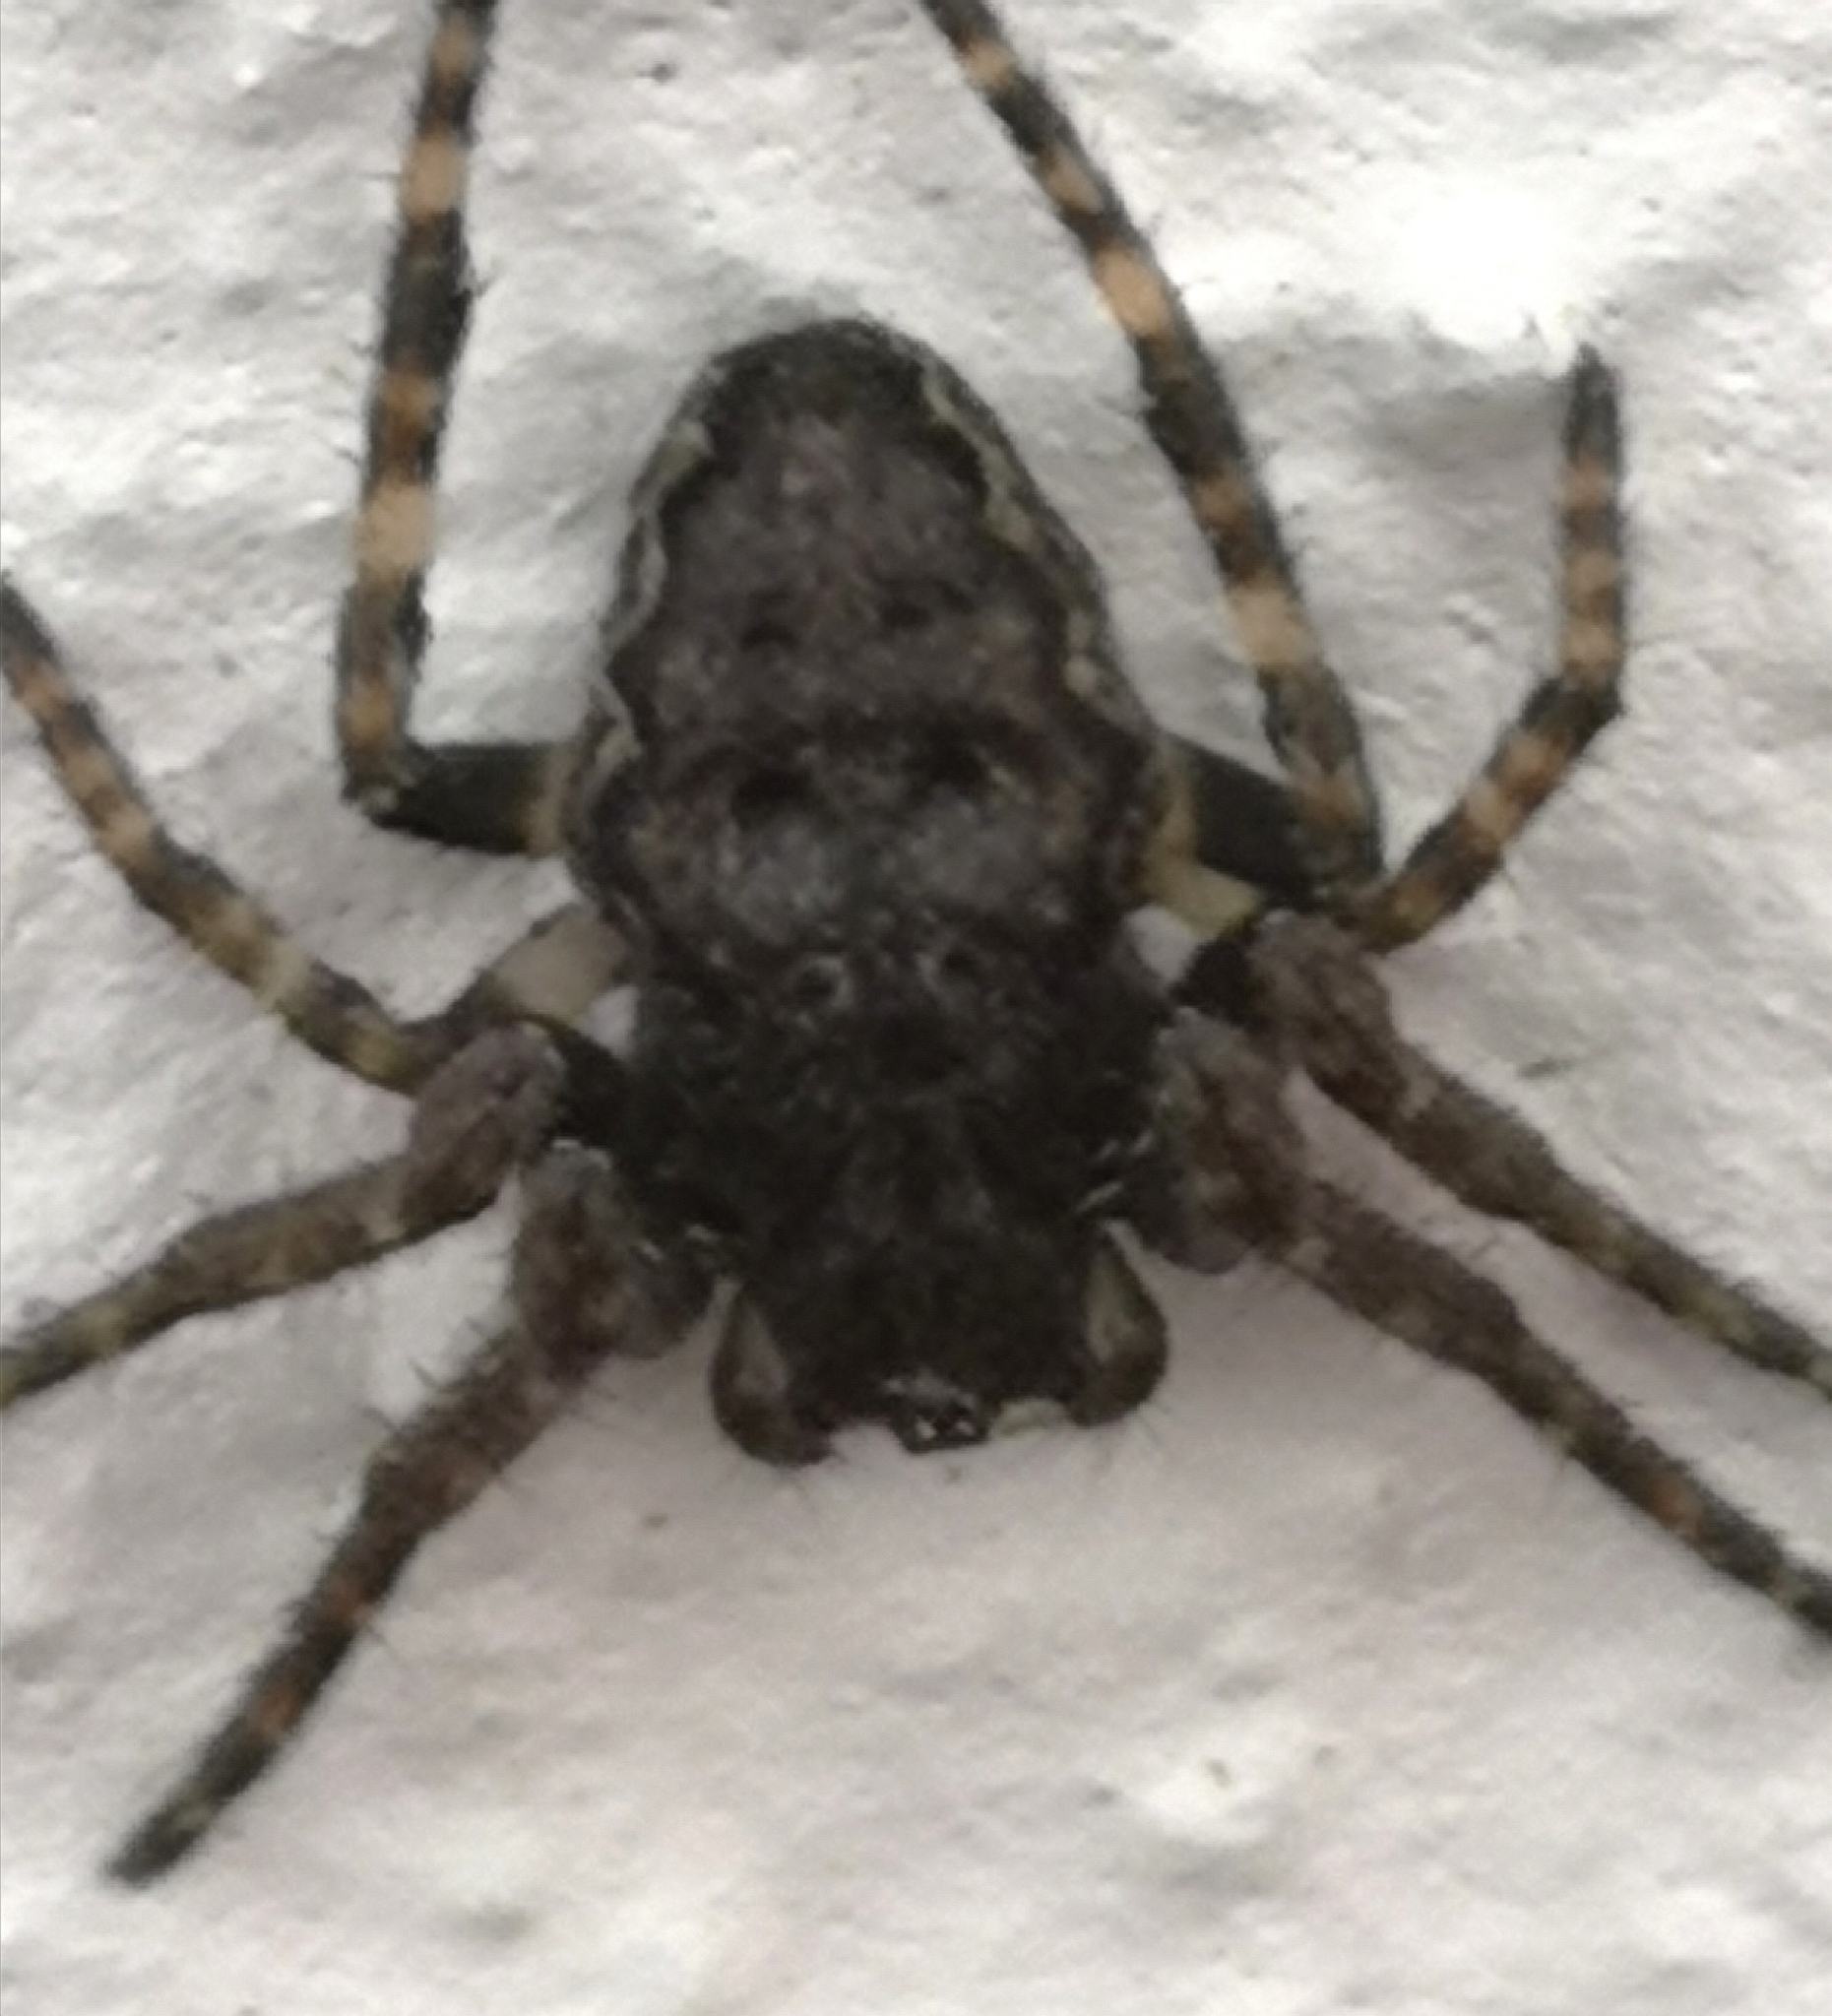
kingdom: Animalia
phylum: Arthropoda
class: Arachnida
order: Araneae
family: Araneidae
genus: Nuctenea
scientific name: Nuctenea umbratica
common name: Toad spider
